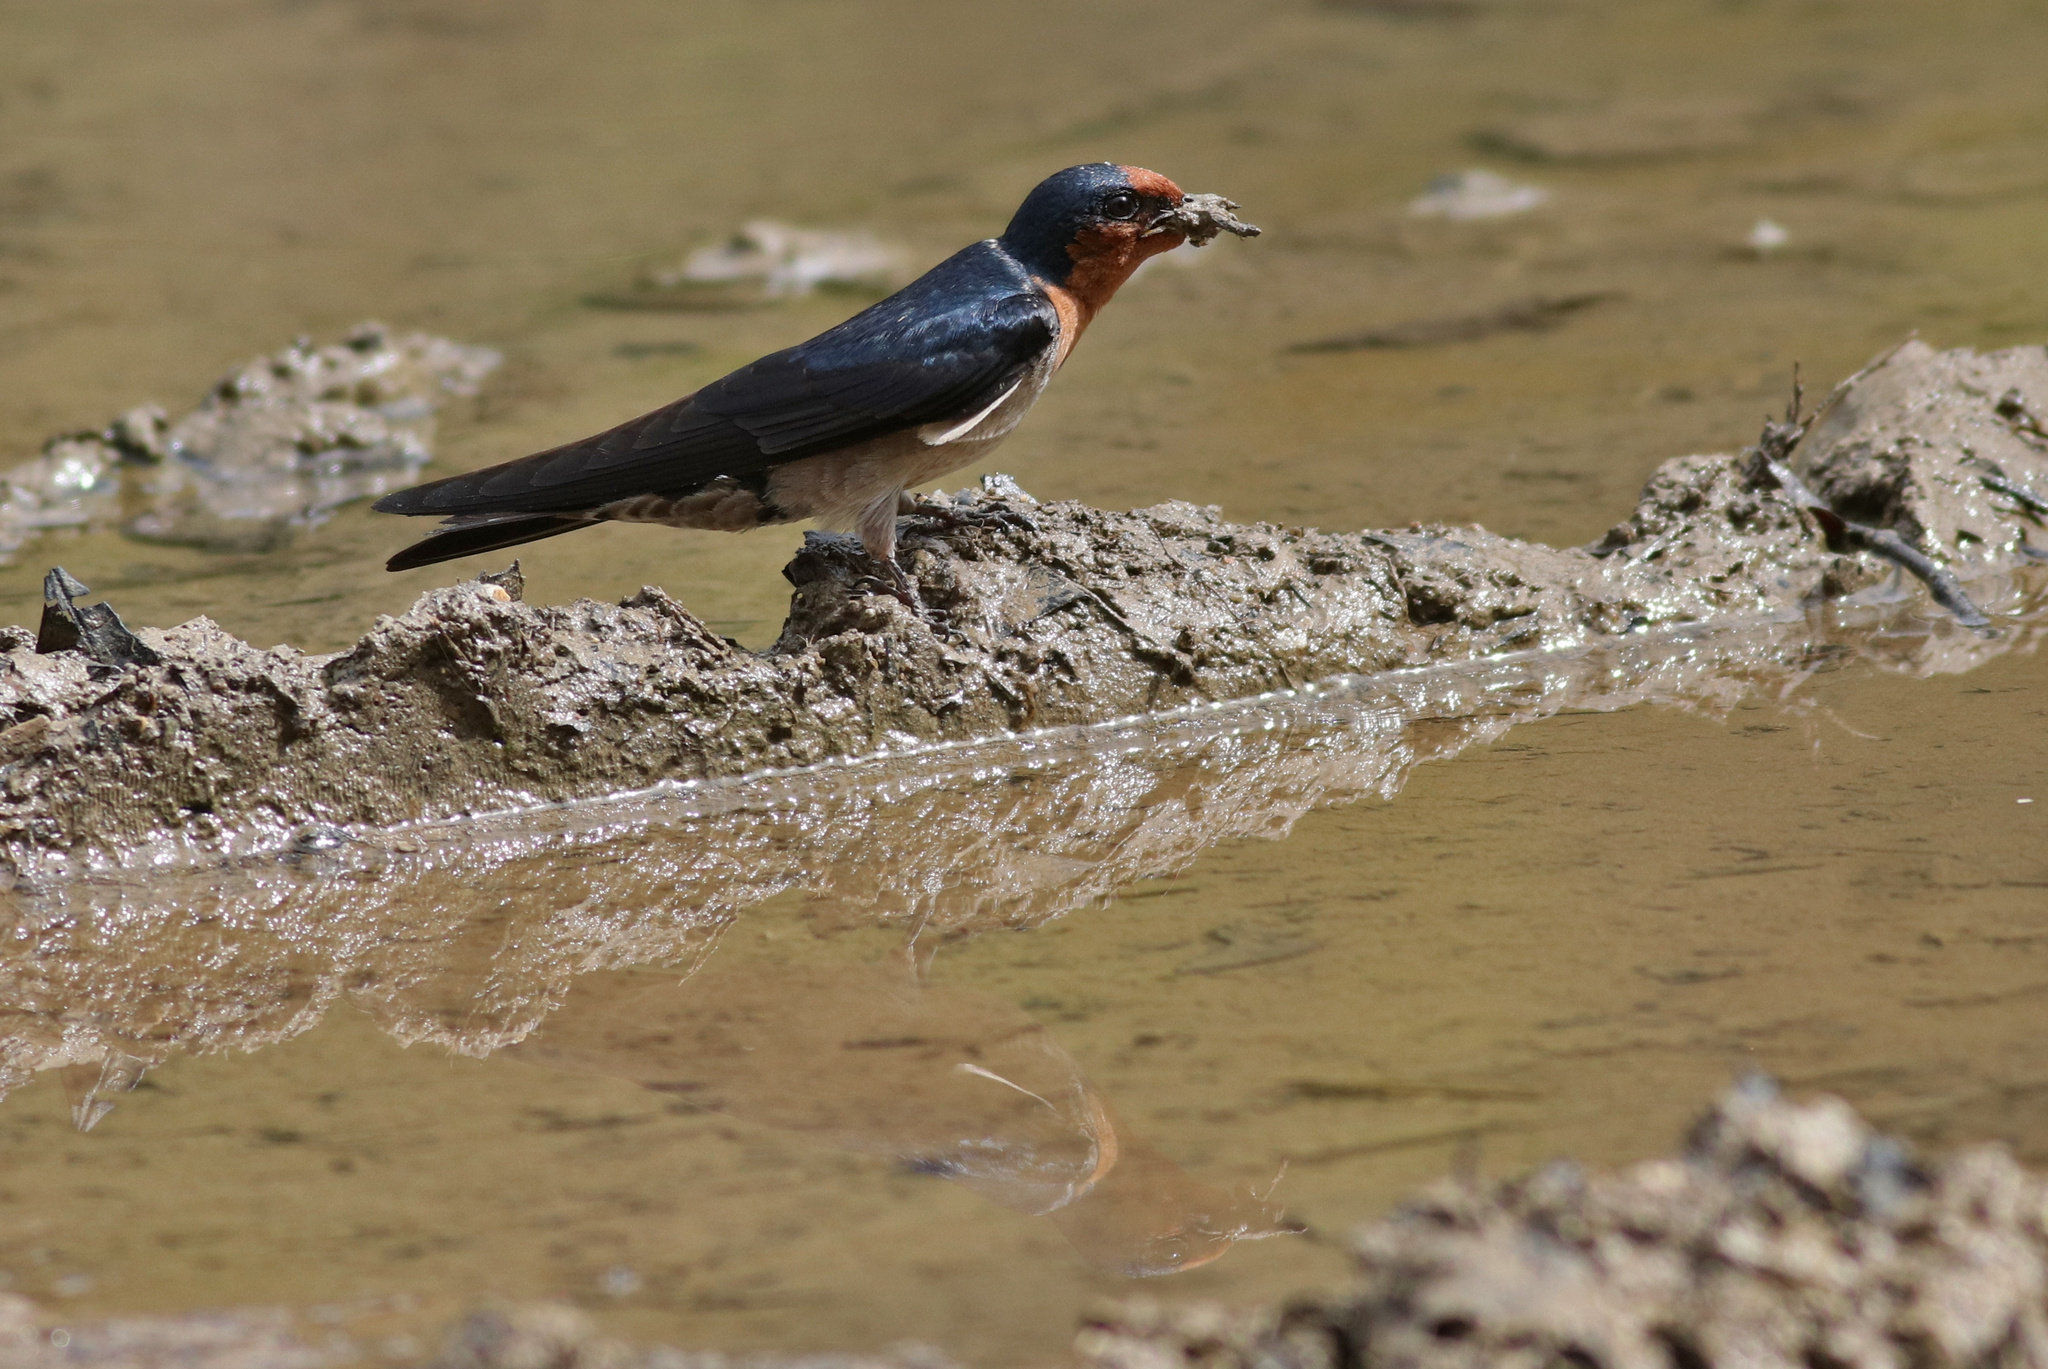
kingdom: Animalia
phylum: Chordata
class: Aves
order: Passeriformes
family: Hirundinidae
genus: Hirundo
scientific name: Hirundo tahitica
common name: Pacific swallow
